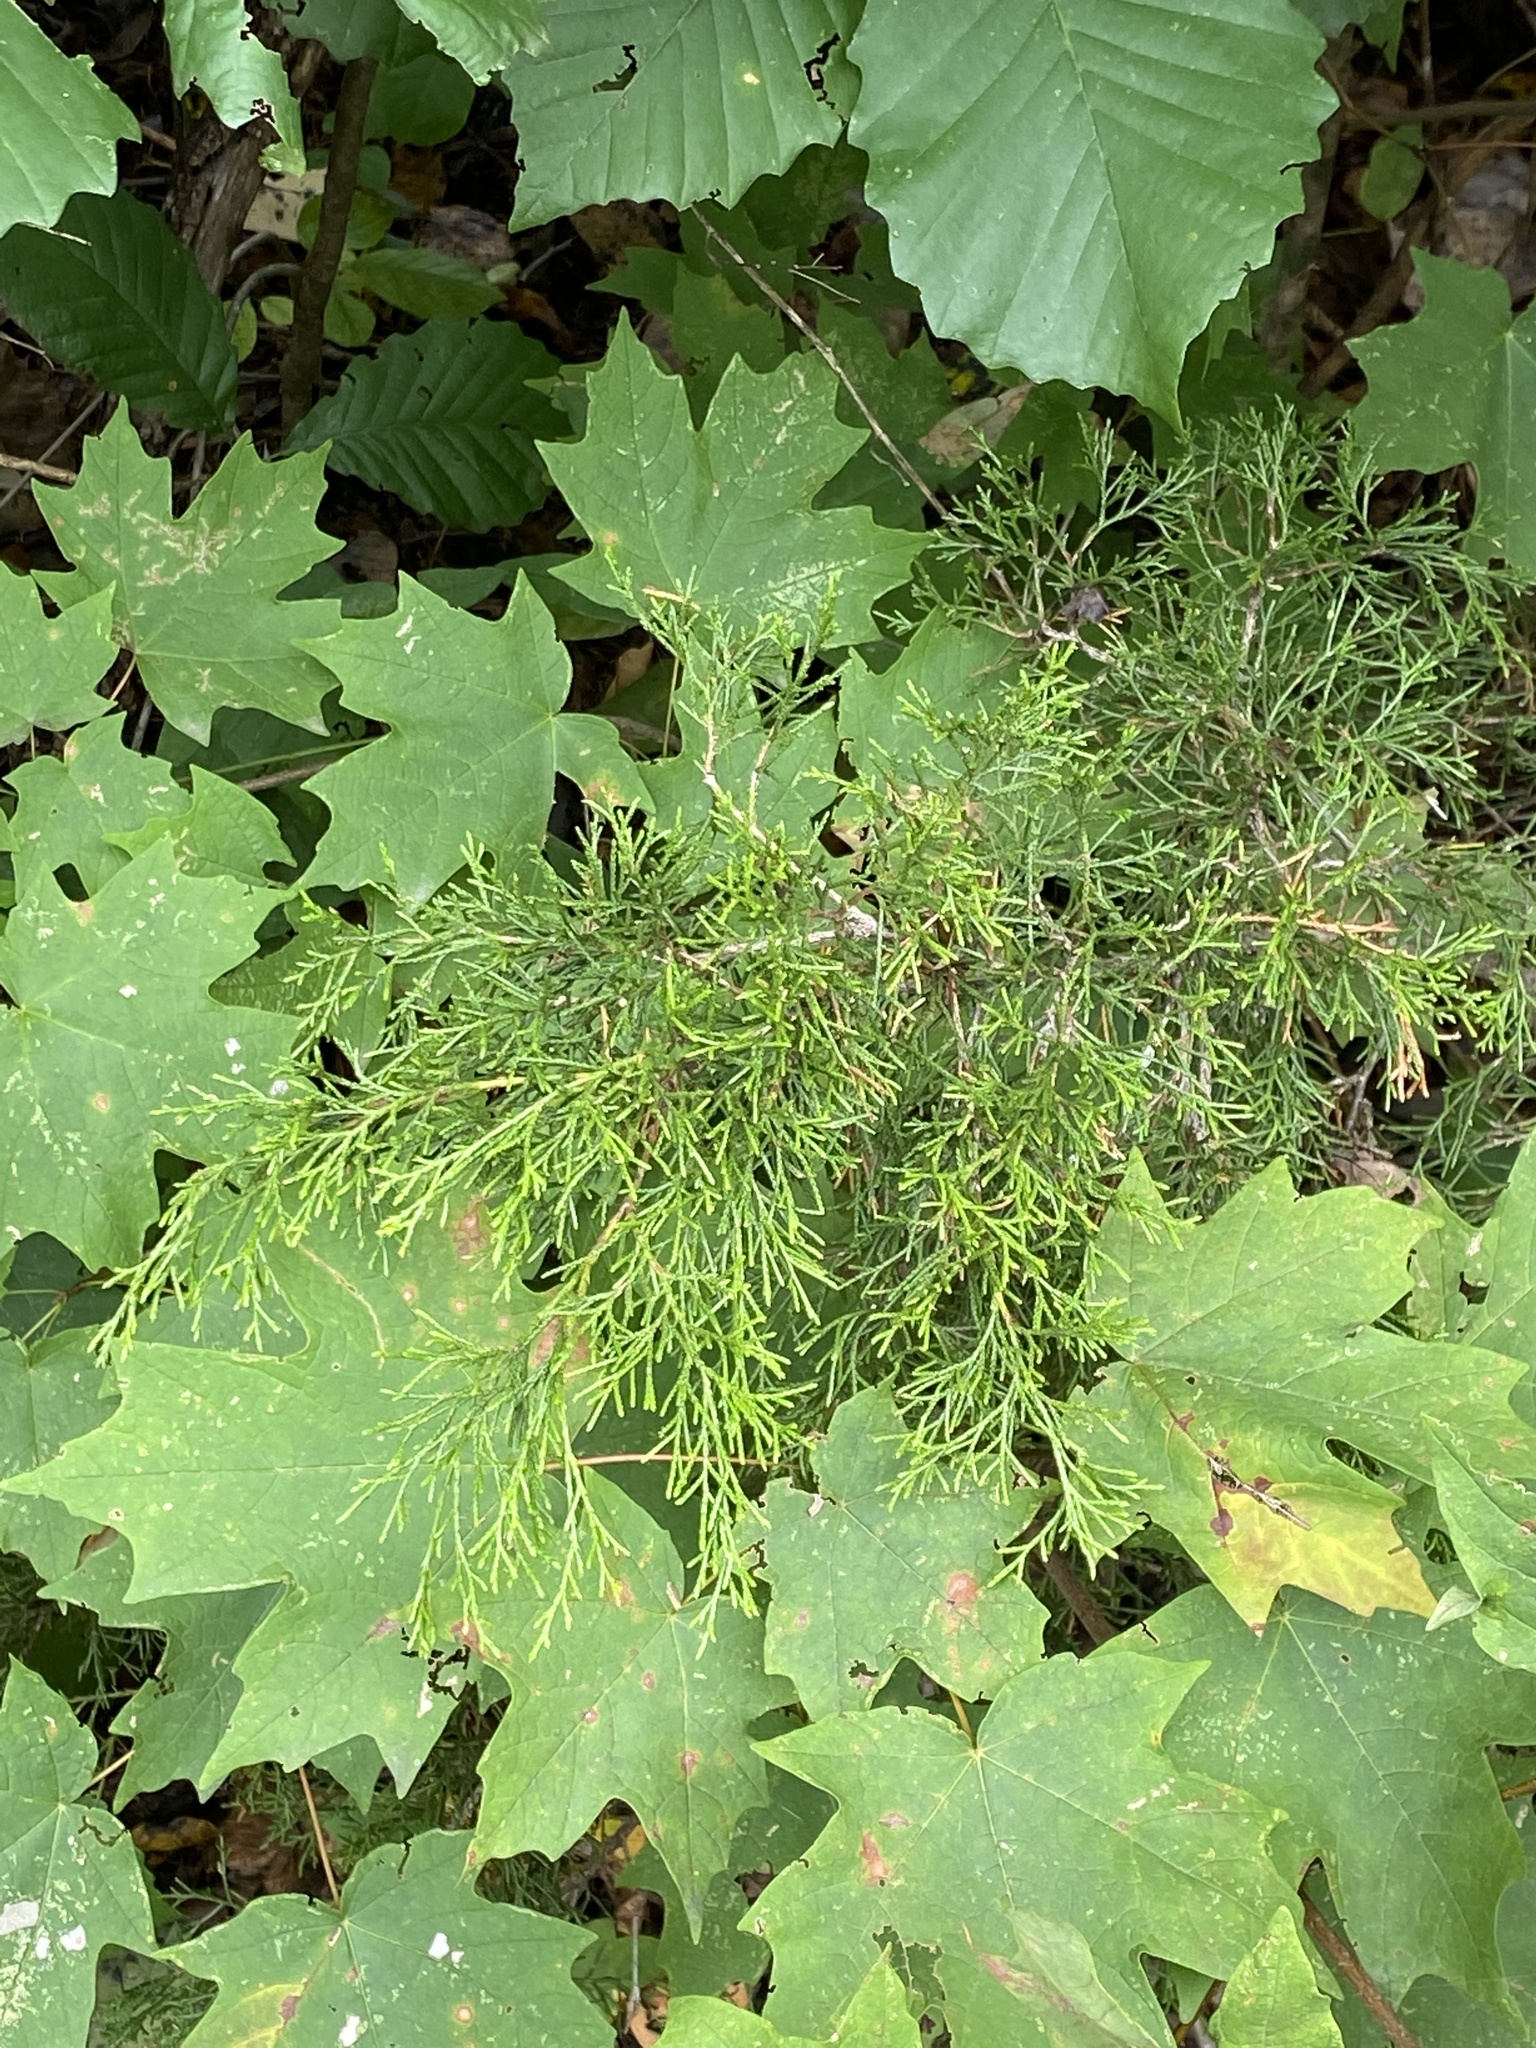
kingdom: Plantae
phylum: Tracheophyta
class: Pinopsida
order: Pinales
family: Cupressaceae
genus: Juniperus
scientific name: Juniperus virginiana
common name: Red juniper
